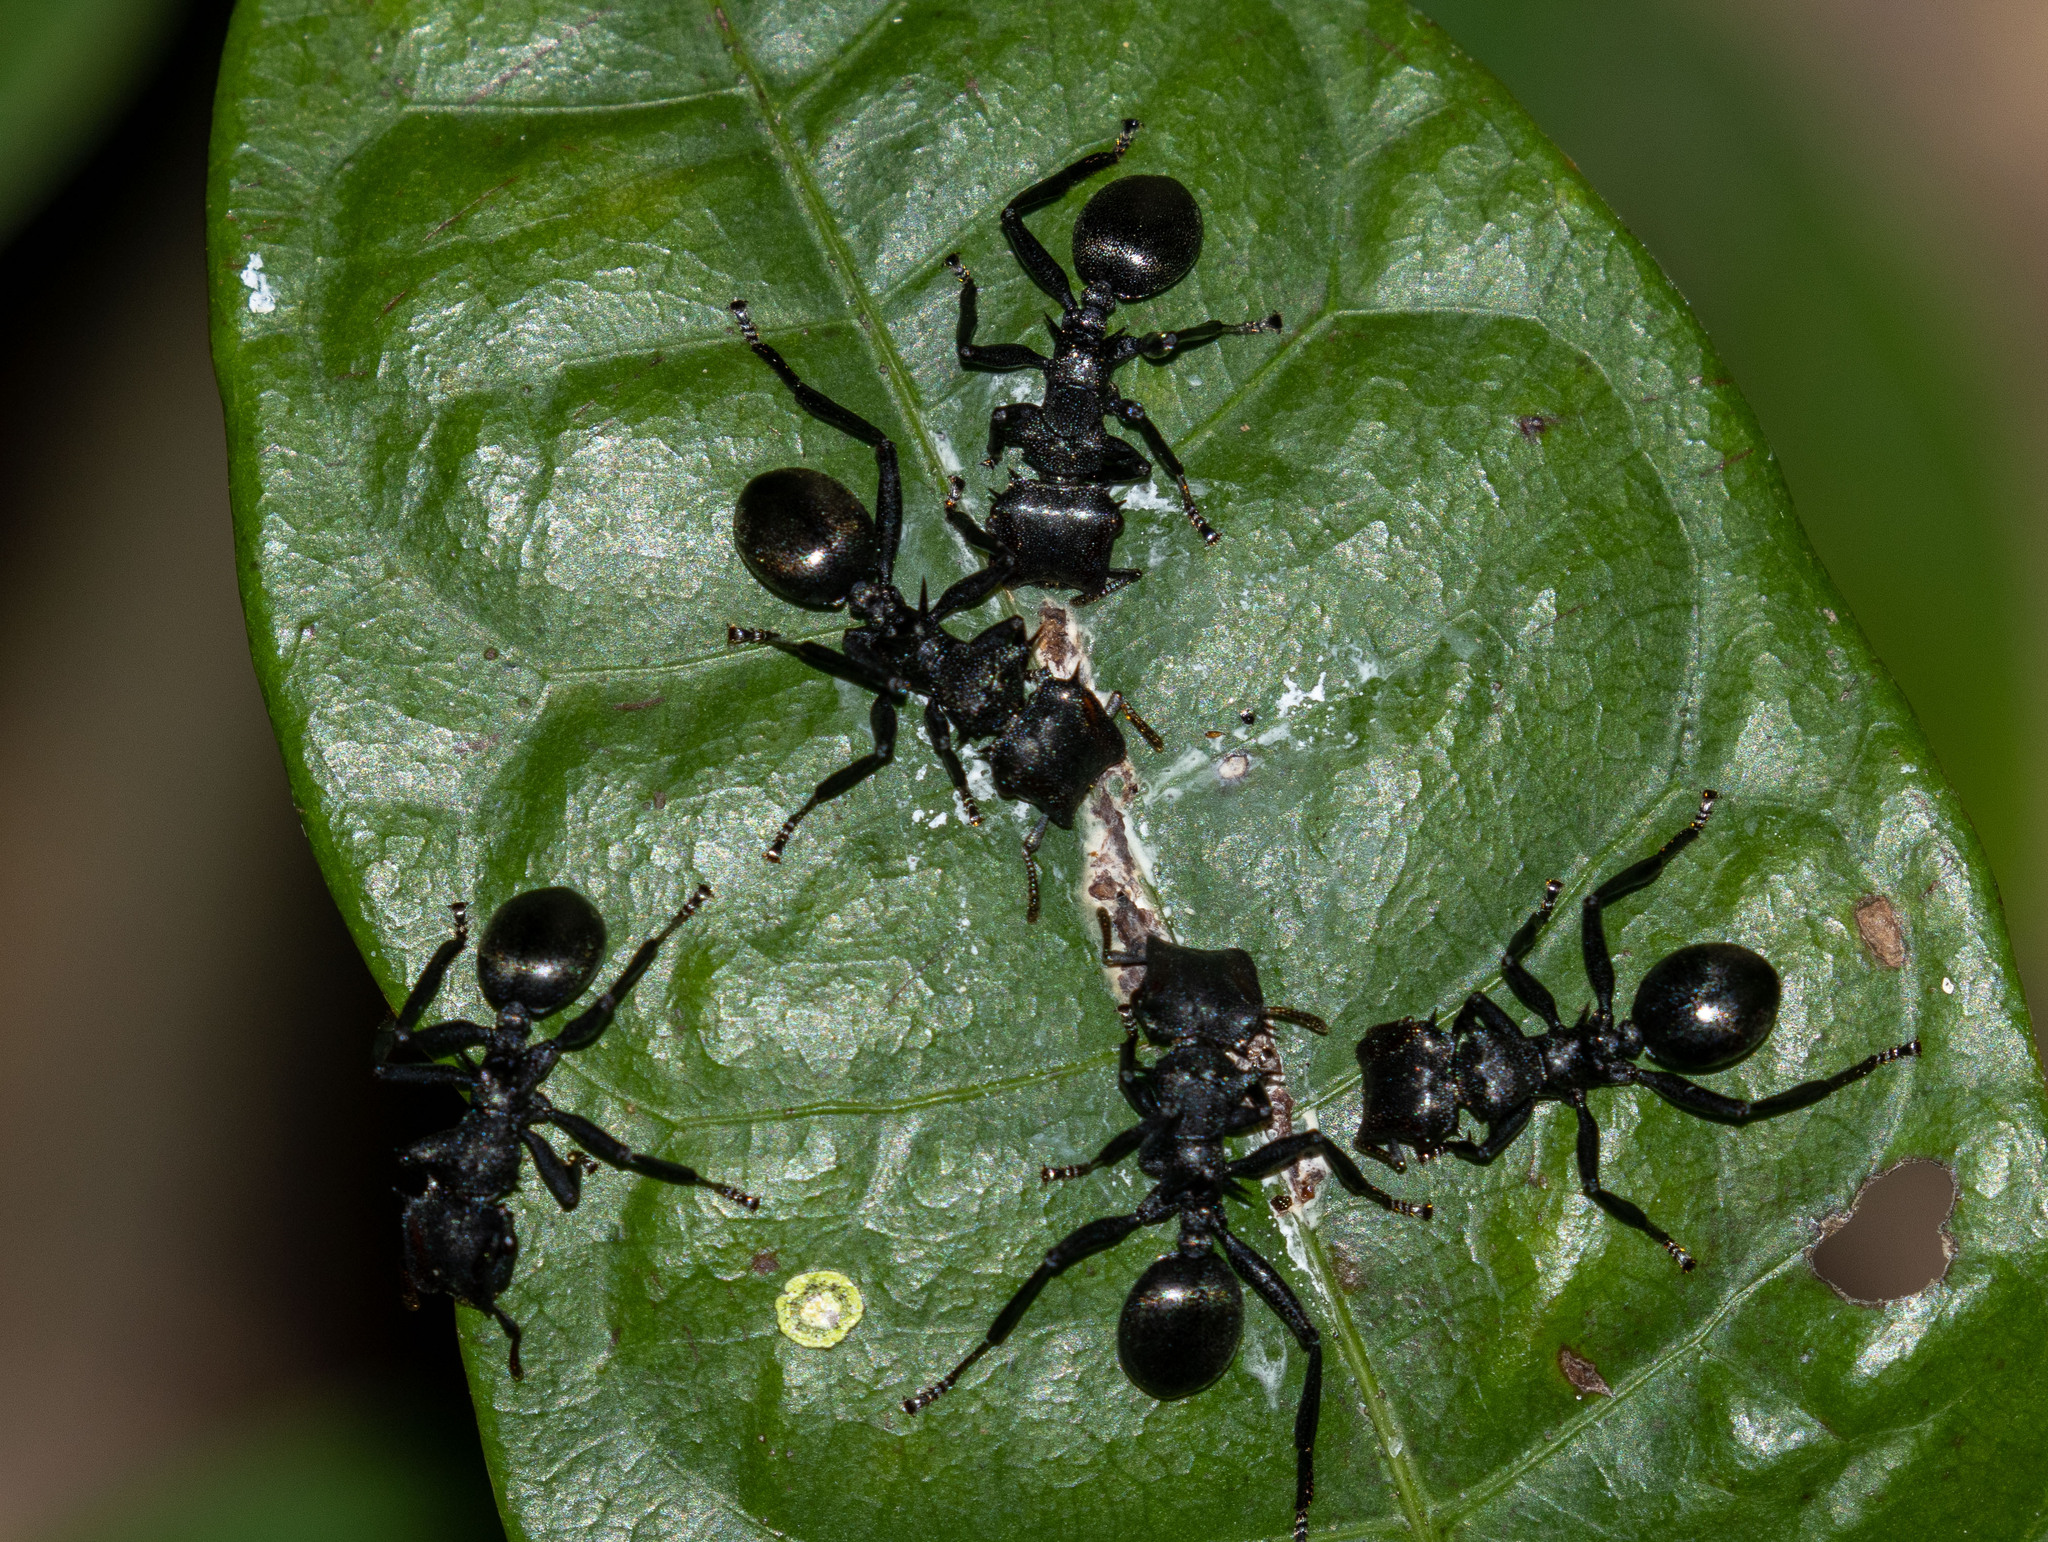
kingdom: Animalia
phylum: Arthropoda
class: Insecta
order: Hymenoptera
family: Formicidae
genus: Cephalotes
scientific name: Cephalotes atratus
